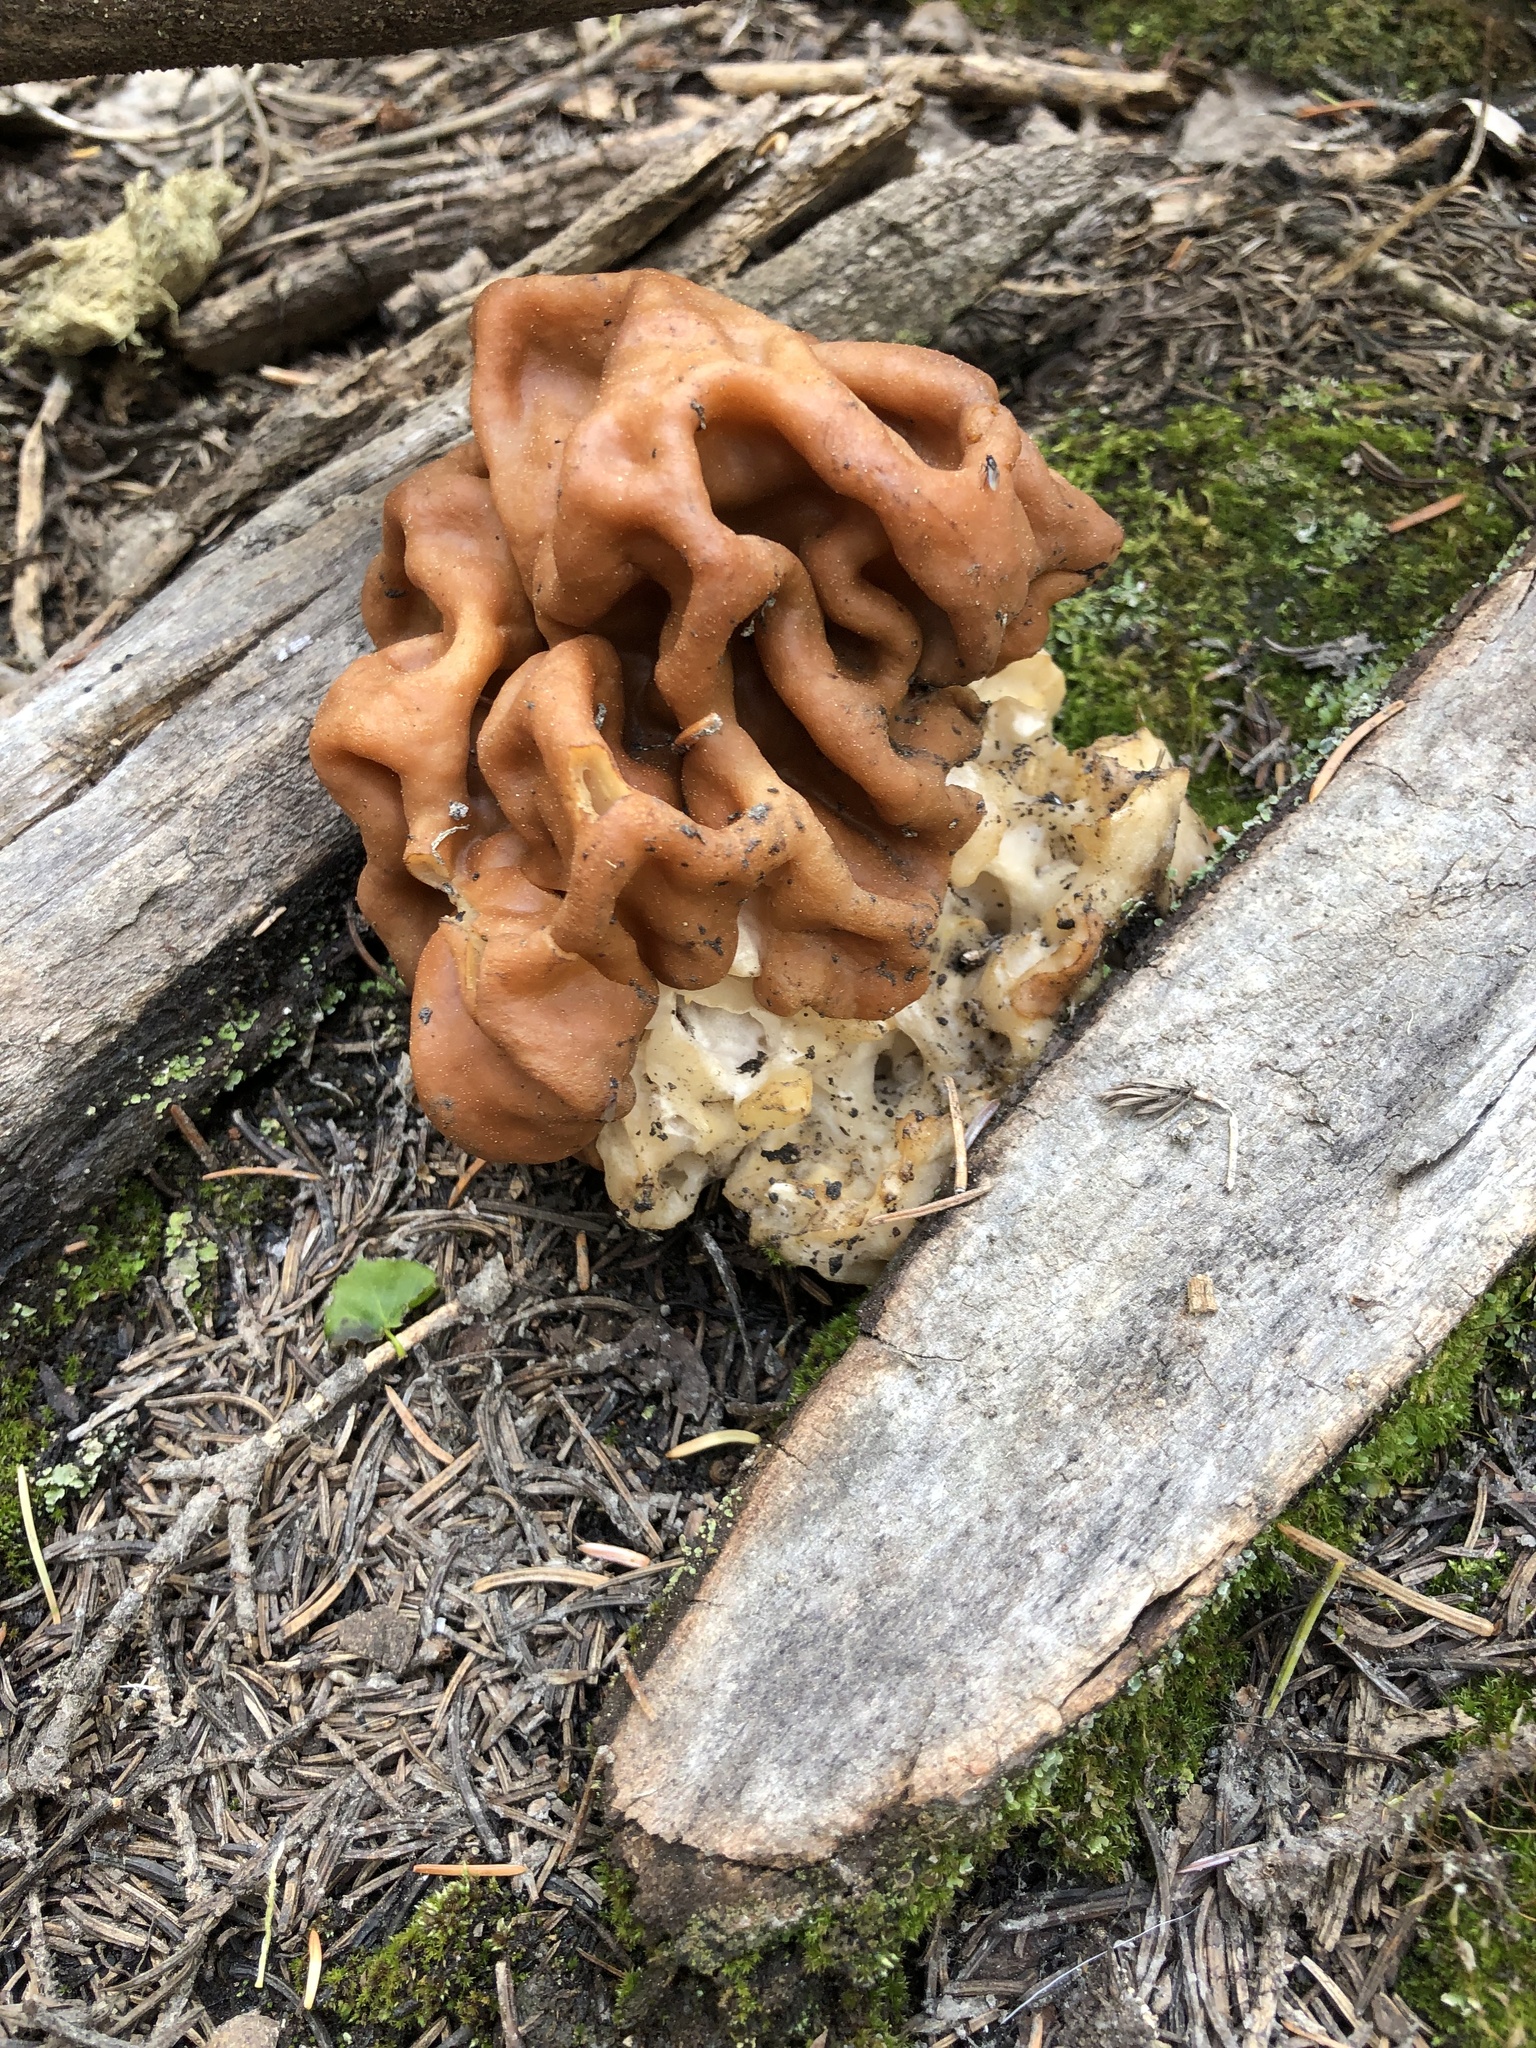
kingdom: Fungi
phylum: Ascomycota
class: Pezizomycetes
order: Pezizales
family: Discinaceae
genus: Discina
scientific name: Discina montana
